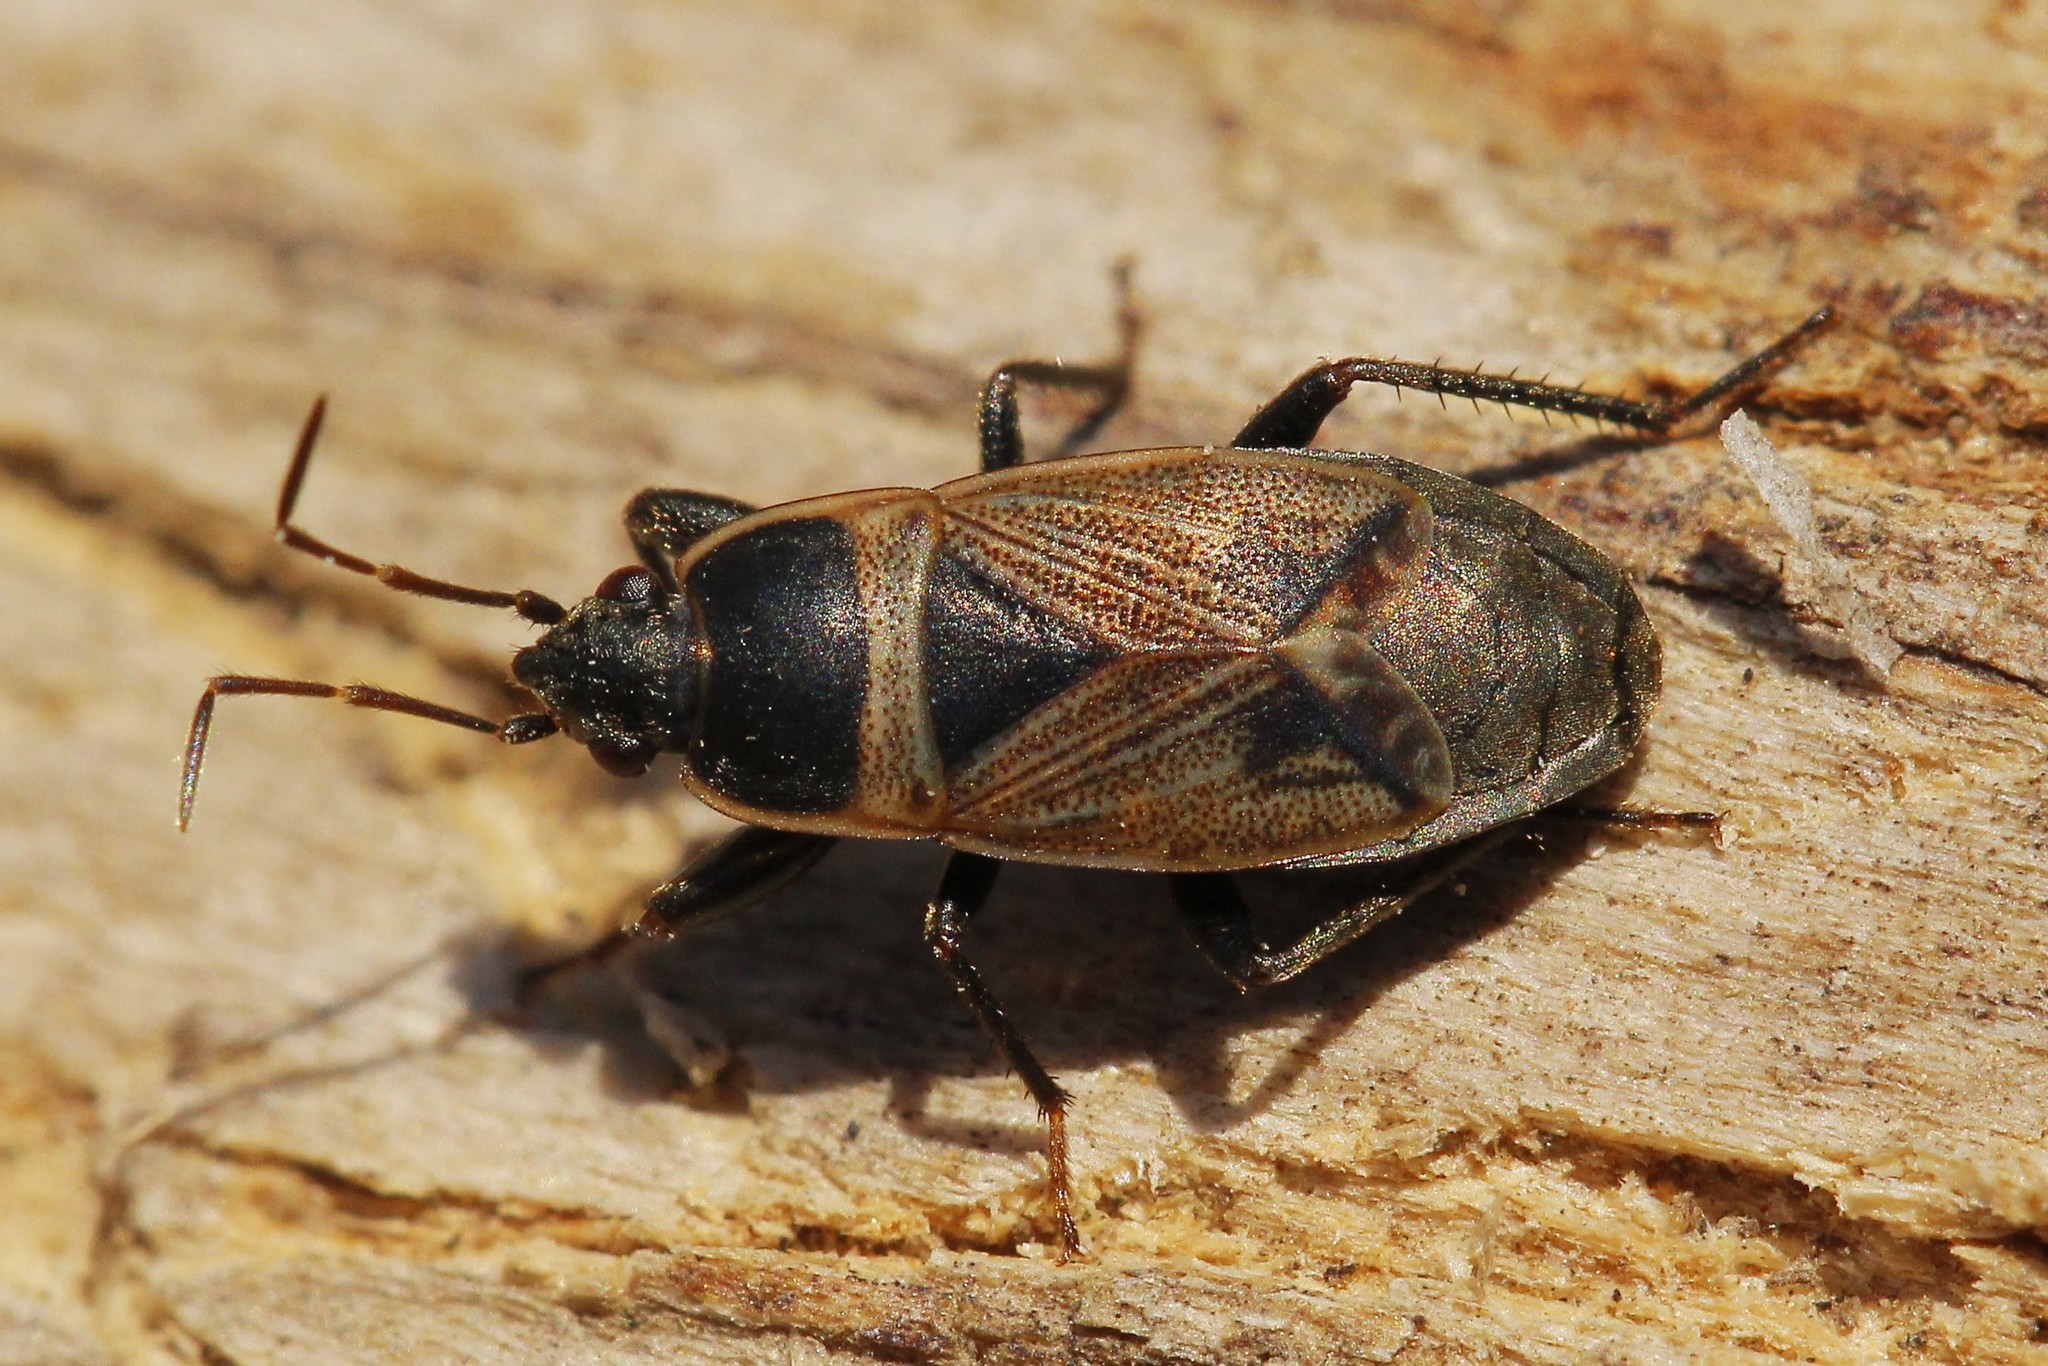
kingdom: Animalia
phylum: Arthropoda
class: Insecta
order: Hemiptera
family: Rhyparochromidae
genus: Bleteogonus
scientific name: Bleteogonus beckeri
